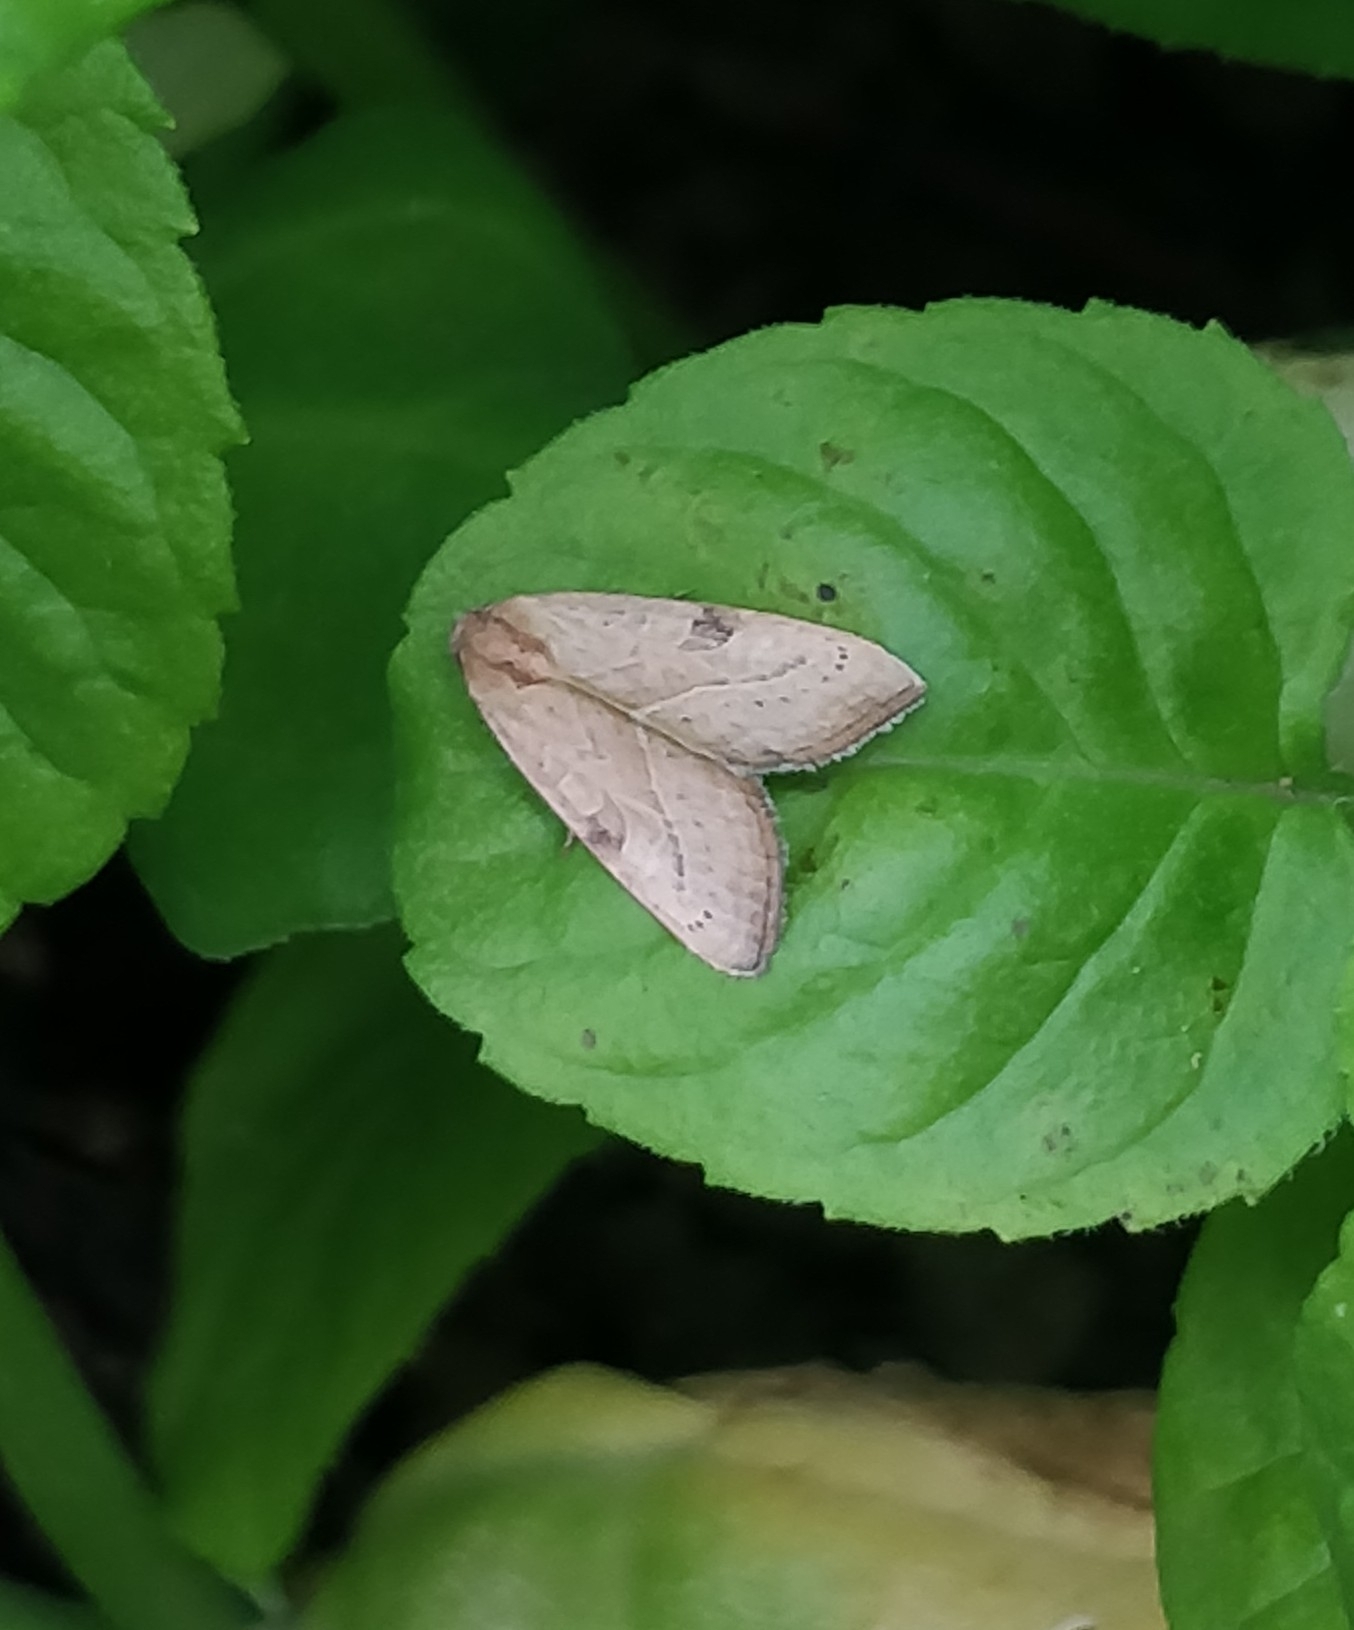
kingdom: Animalia
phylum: Arthropoda
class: Insecta
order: Lepidoptera
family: Noctuidae
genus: Galgula
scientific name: Galgula partita
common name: Wedgeling
